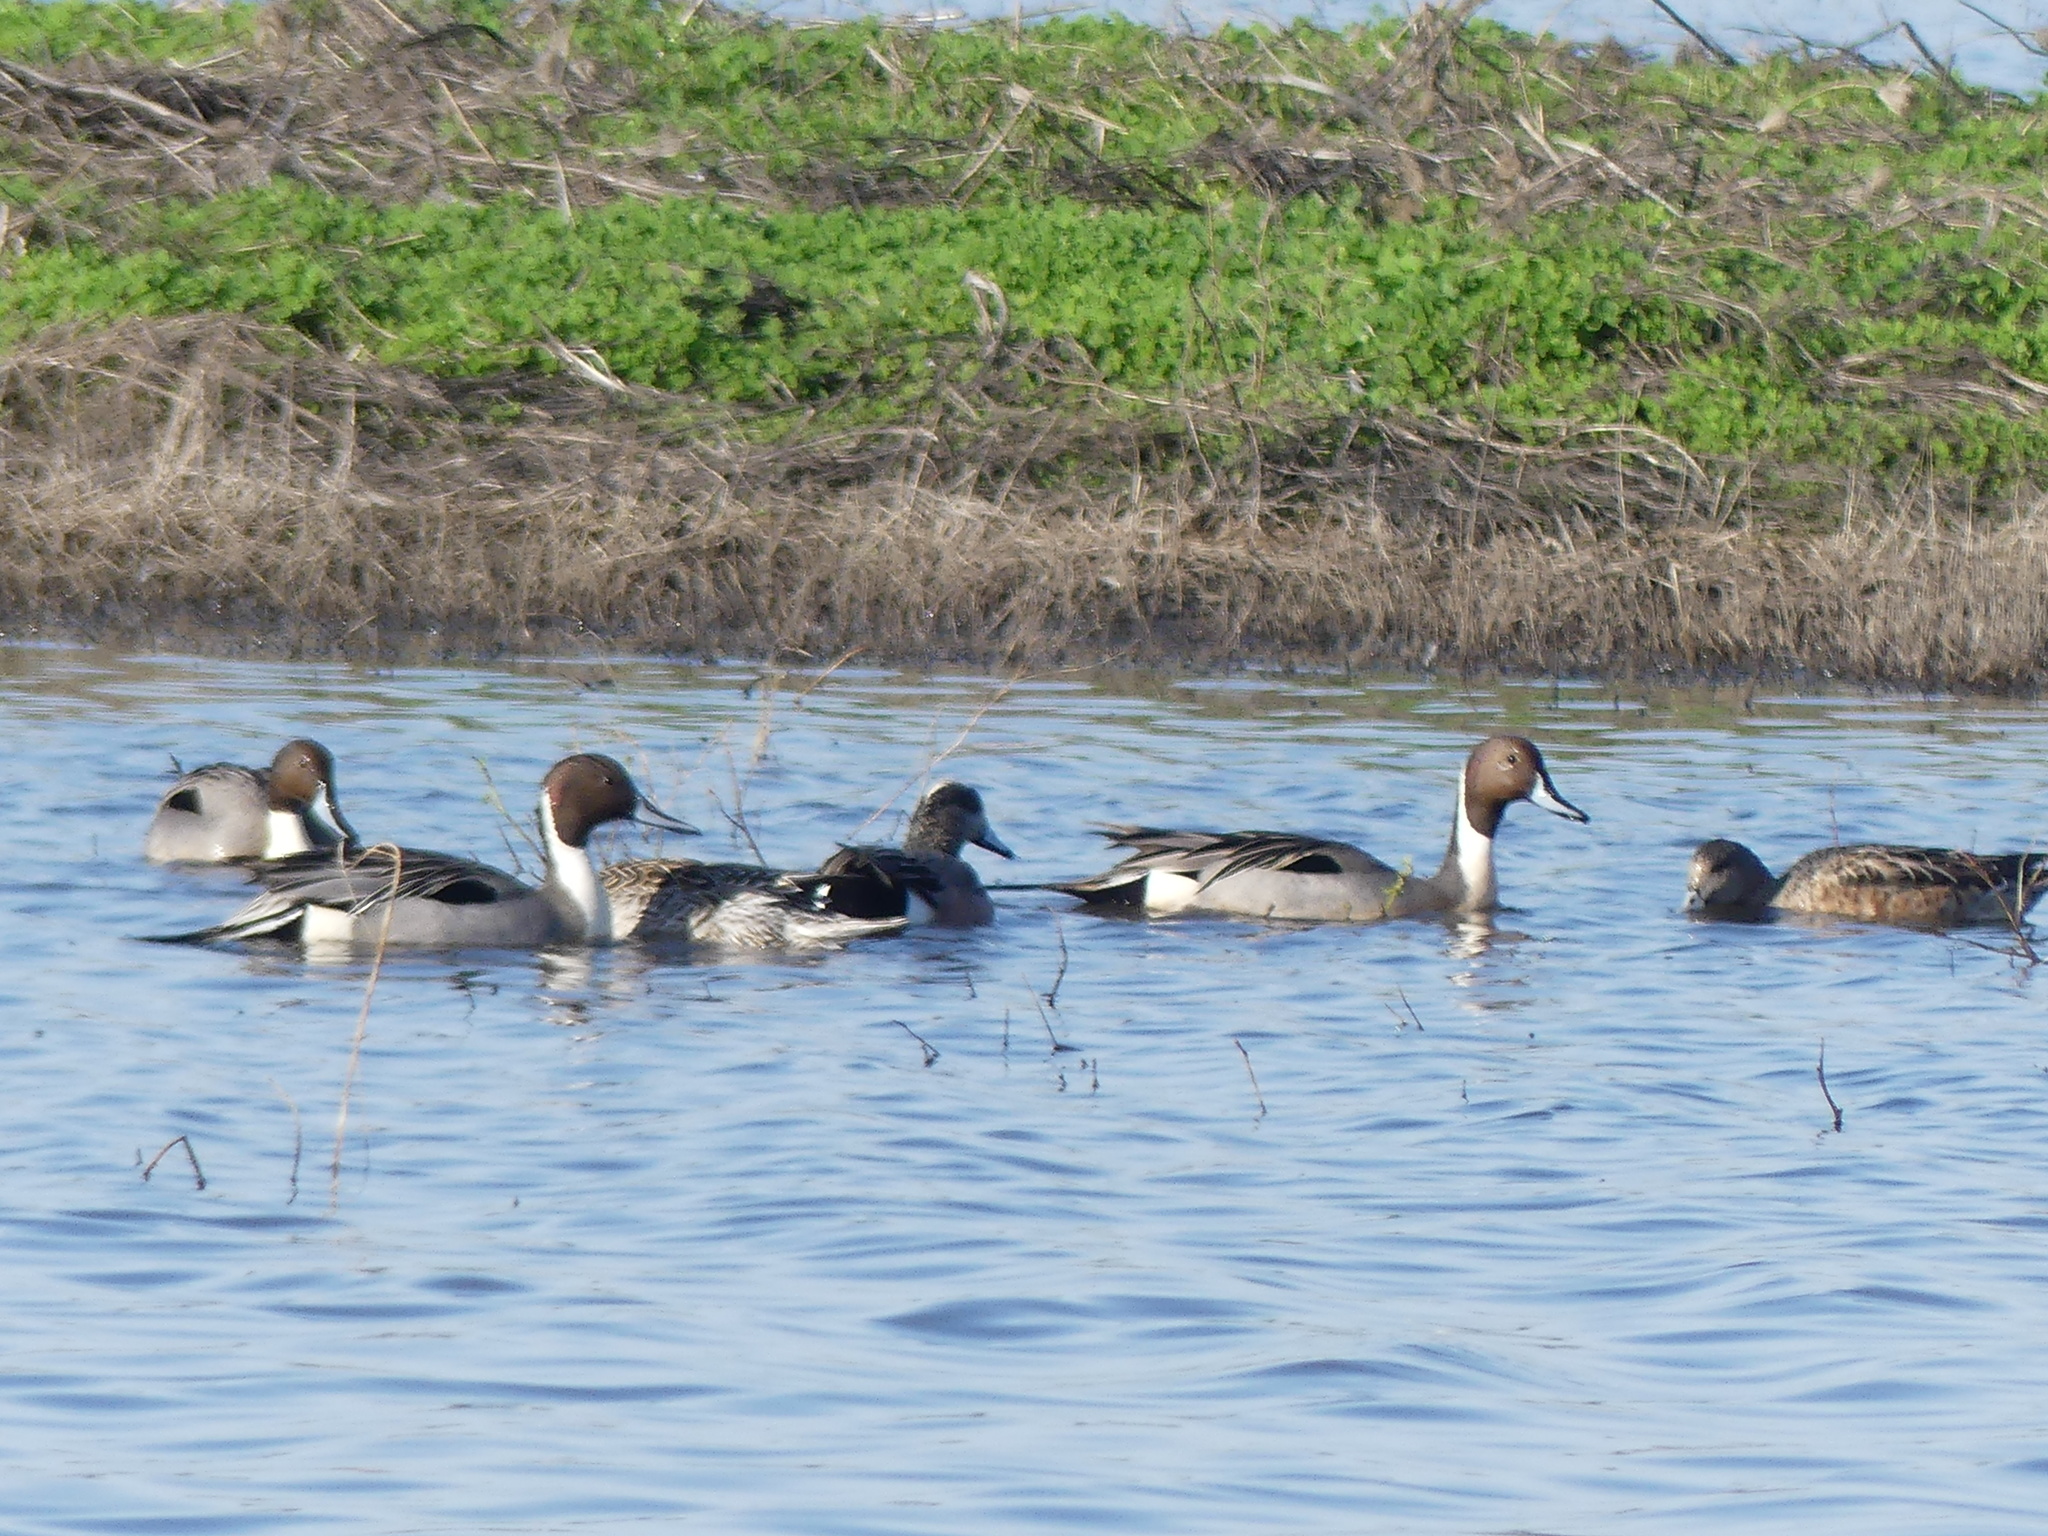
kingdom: Animalia
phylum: Chordata
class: Aves
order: Anseriformes
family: Anatidae
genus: Anas
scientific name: Anas acuta
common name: Northern pintail
